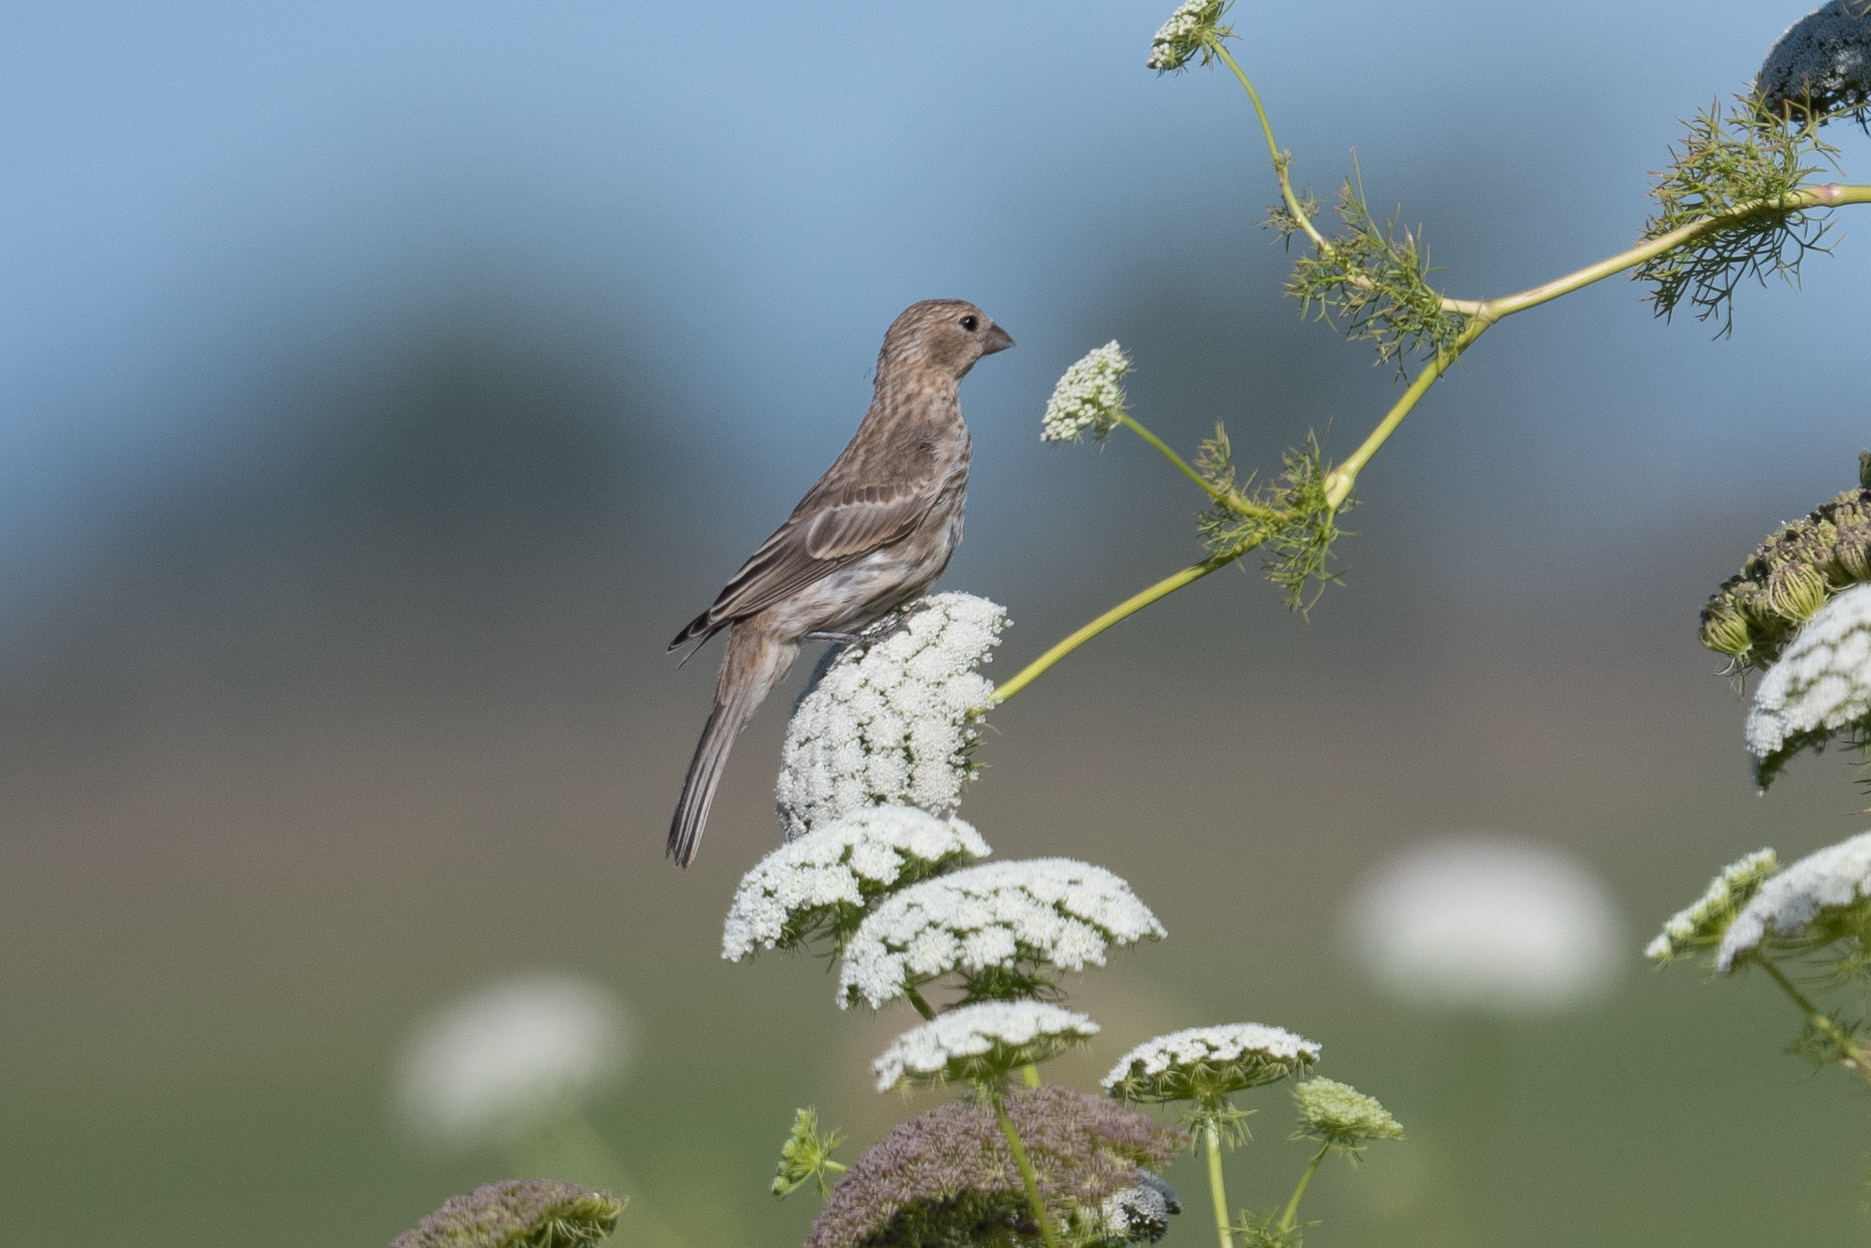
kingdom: Animalia
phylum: Chordata
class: Aves
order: Passeriformes
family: Fringillidae
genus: Haemorhous
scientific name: Haemorhous mexicanus
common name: House finch
